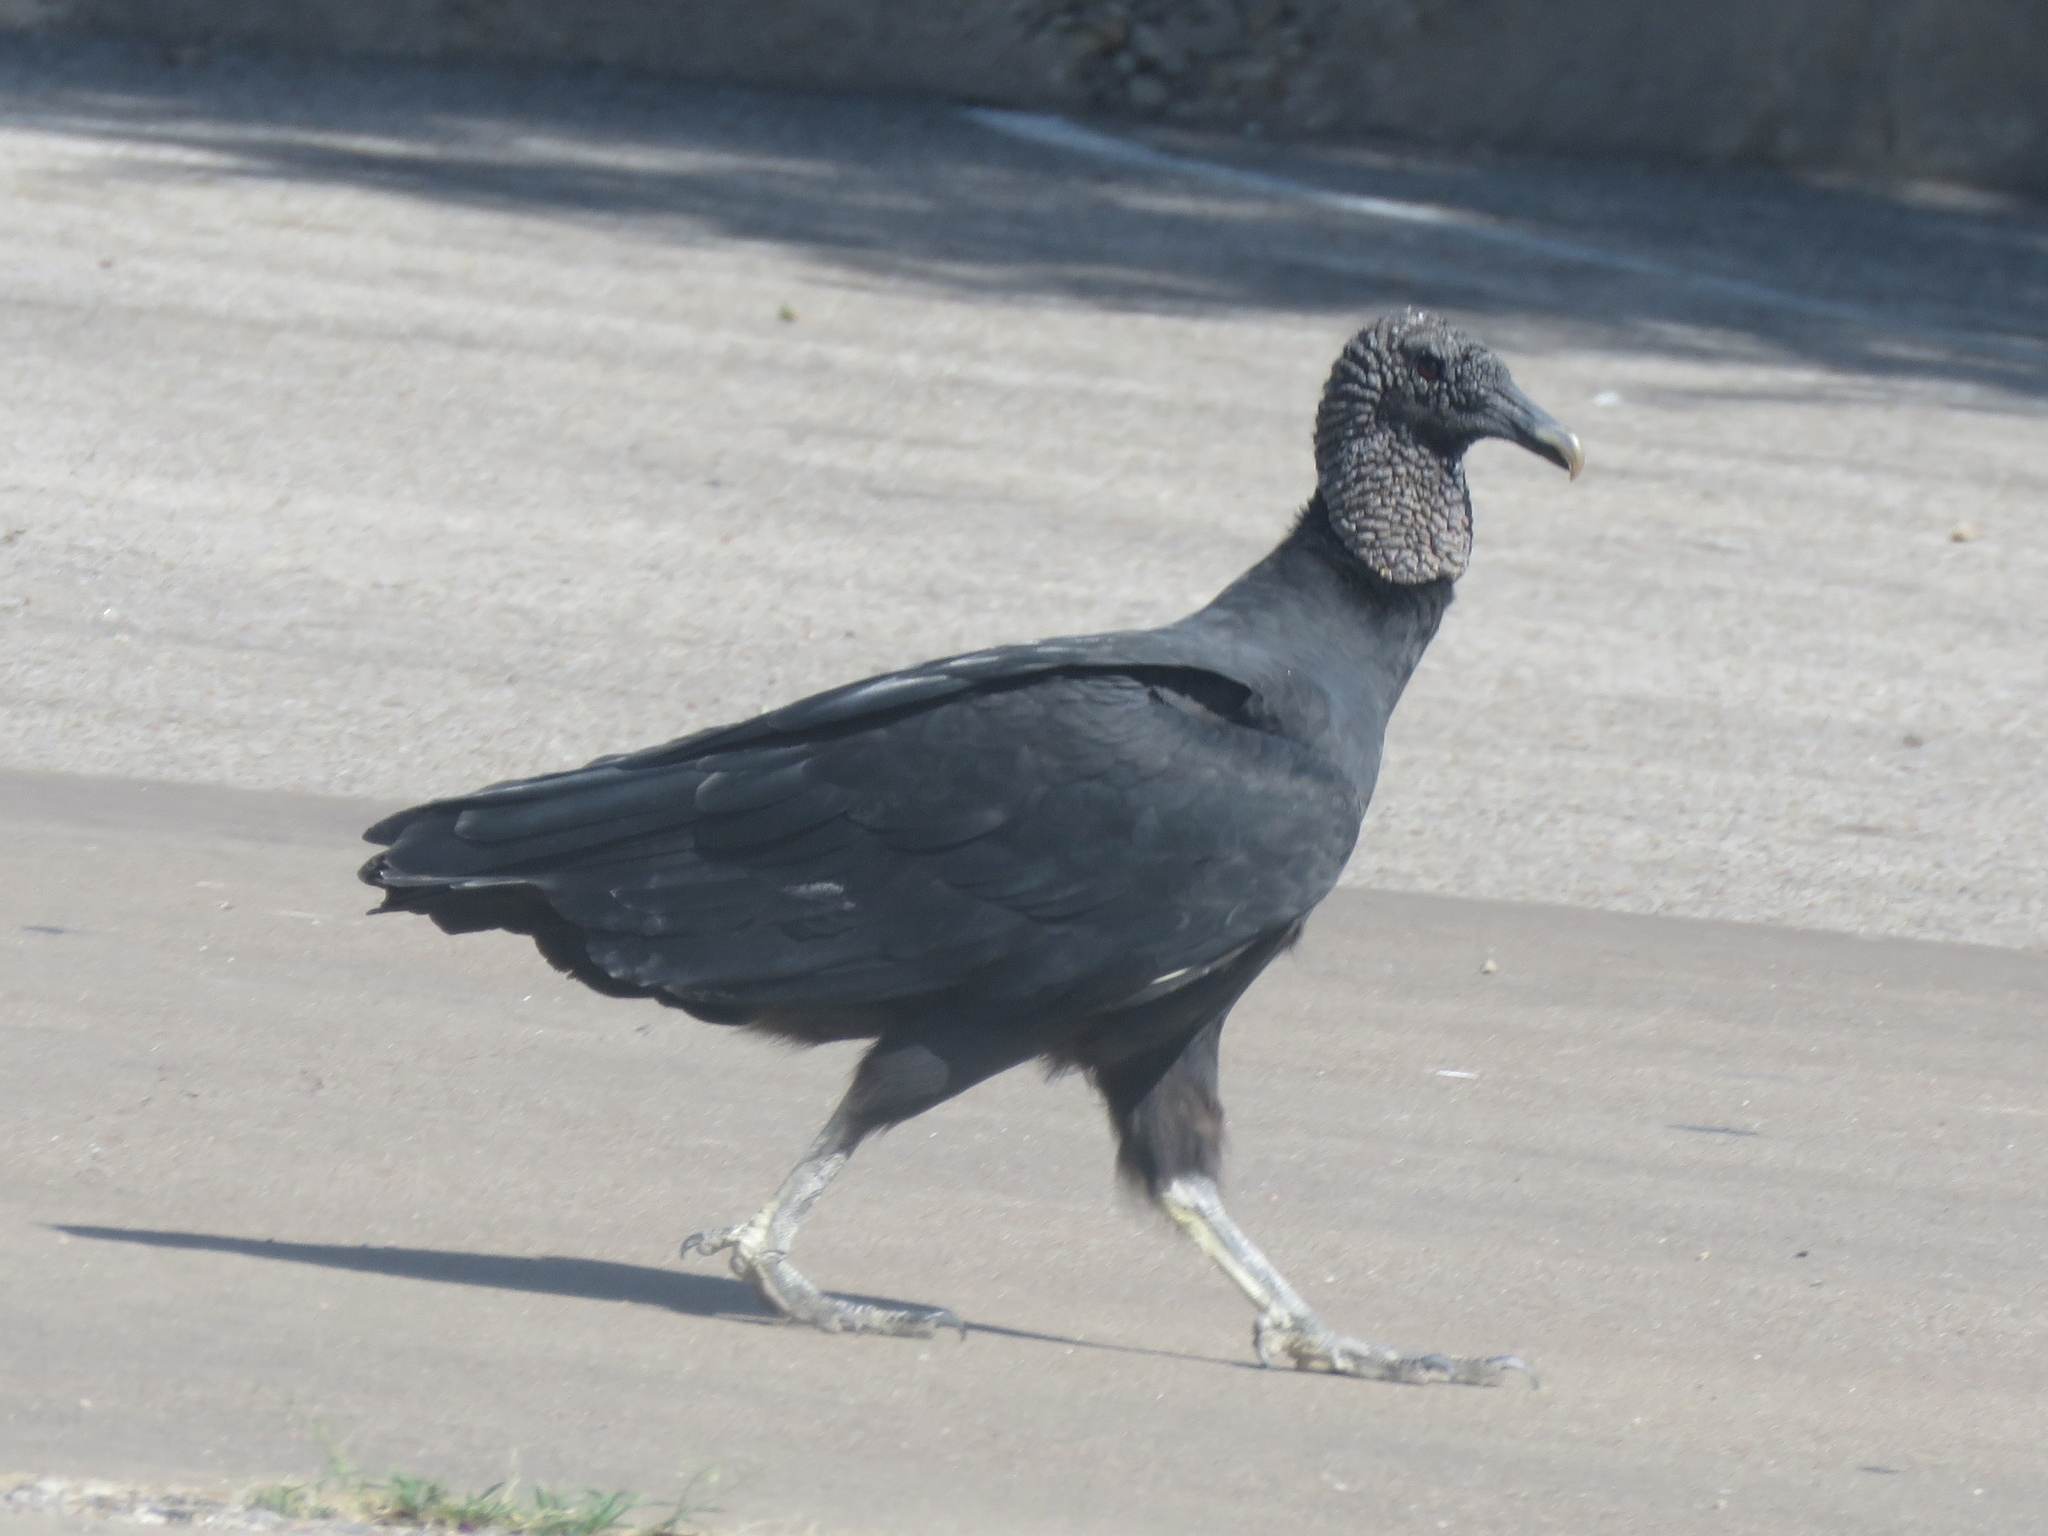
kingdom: Animalia
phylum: Chordata
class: Aves
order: Accipitriformes
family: Cathartidae
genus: Coragyps
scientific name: Coragyps atratus
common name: Black vulture
